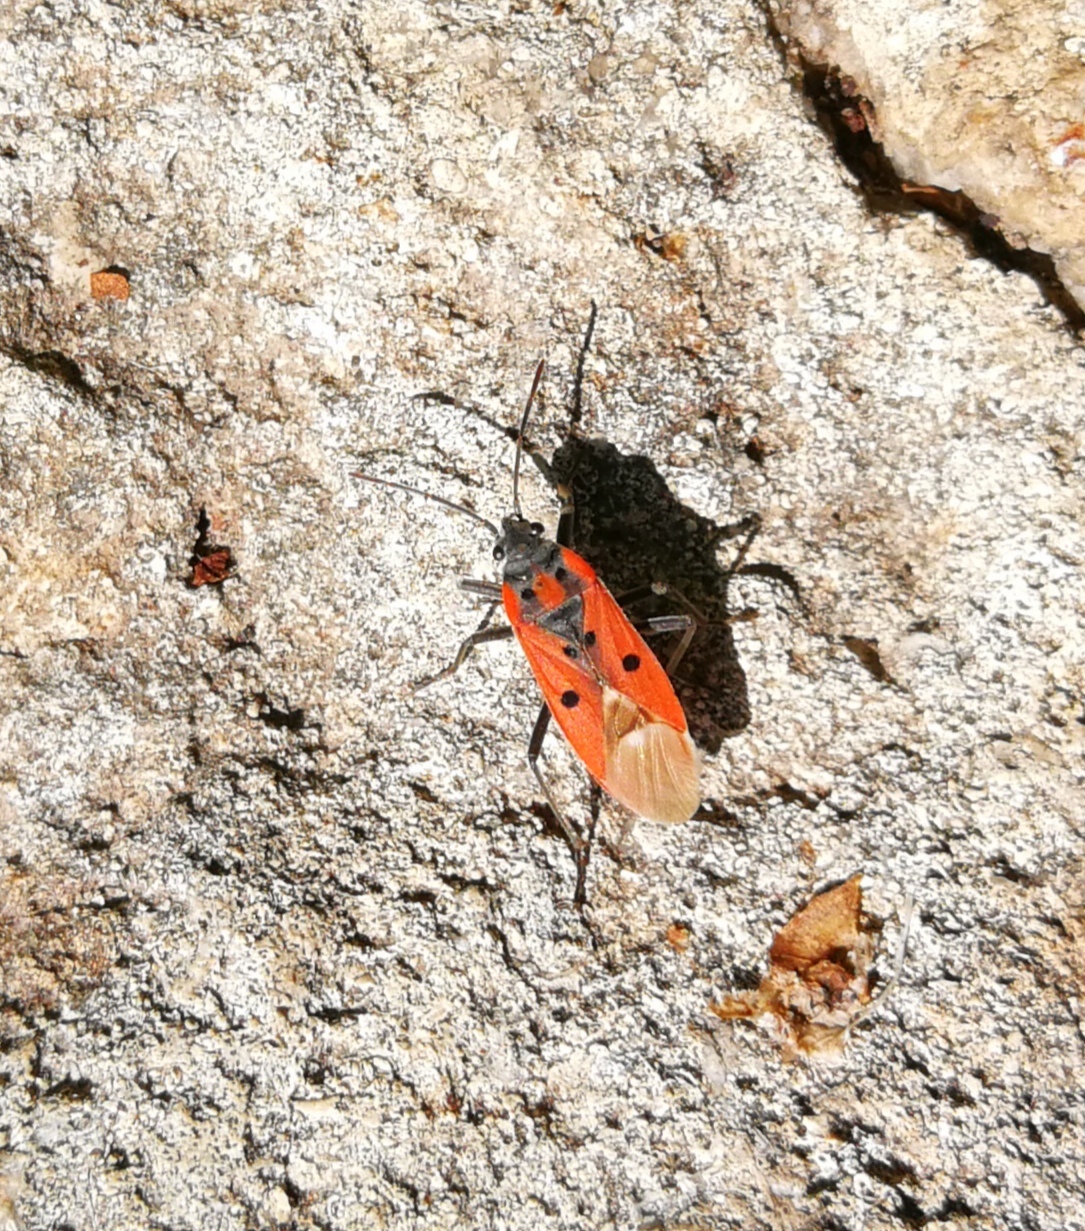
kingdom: Animalia
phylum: Arthropoda
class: Insecta
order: Hemiptera
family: Lygaeidae
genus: Lygaeus
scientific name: Lygaeus creticus
